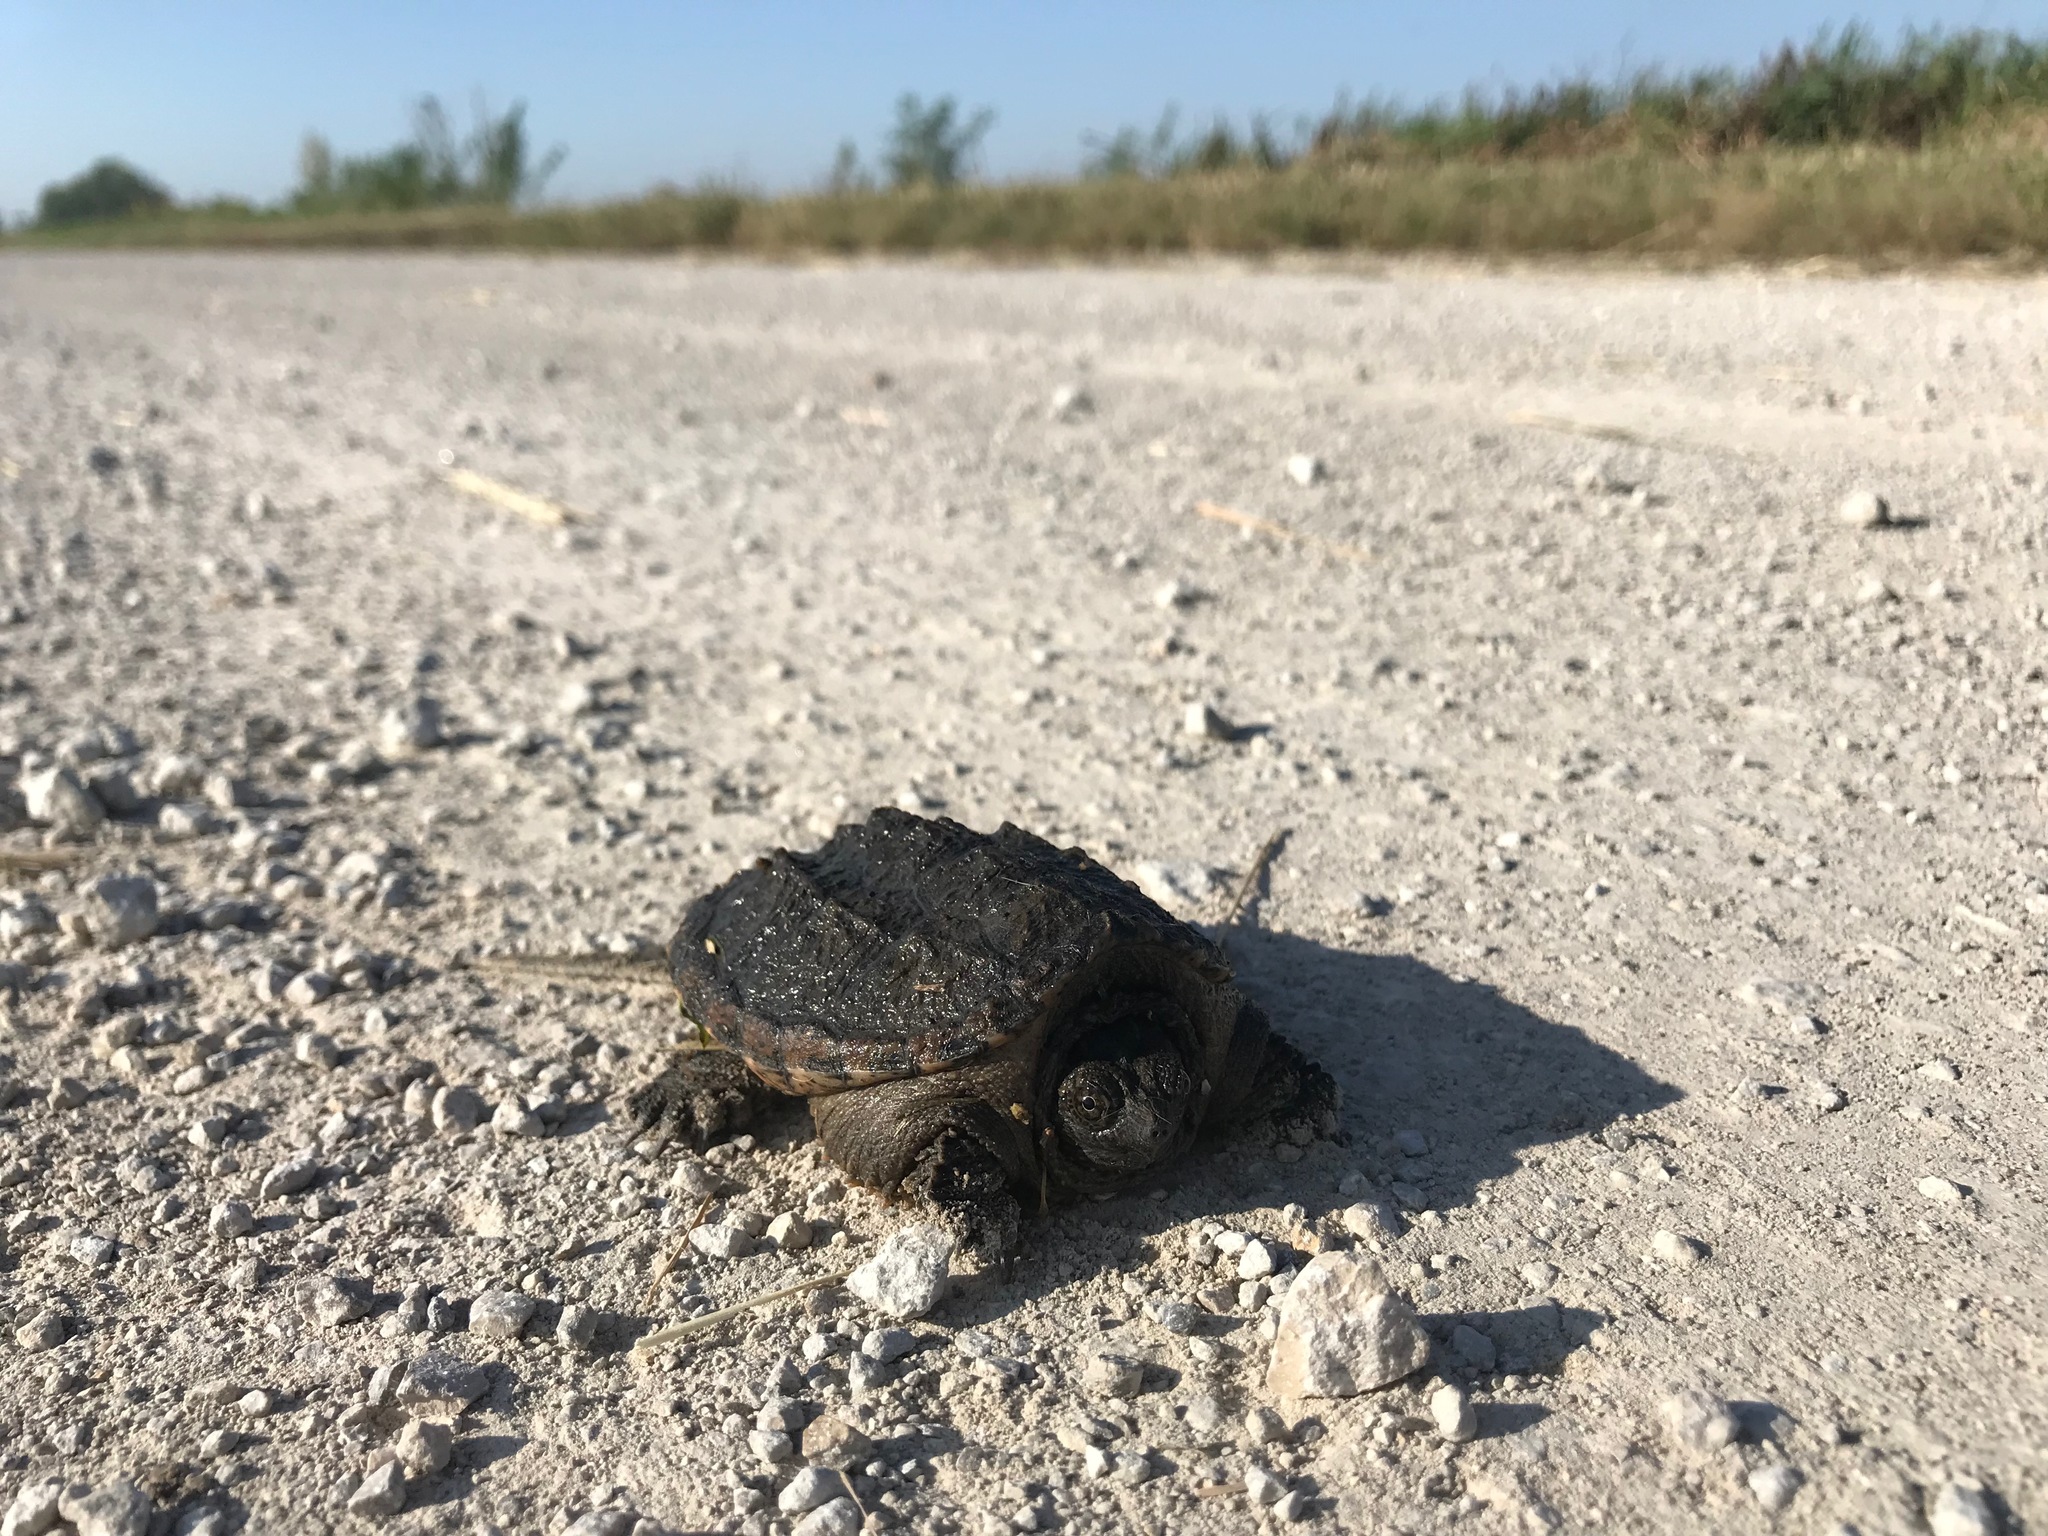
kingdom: Animalia
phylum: Chordata
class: Testudines
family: Chelydridae
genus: Chelydra
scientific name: Chelydra serpentina
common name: Common snapping turtle
